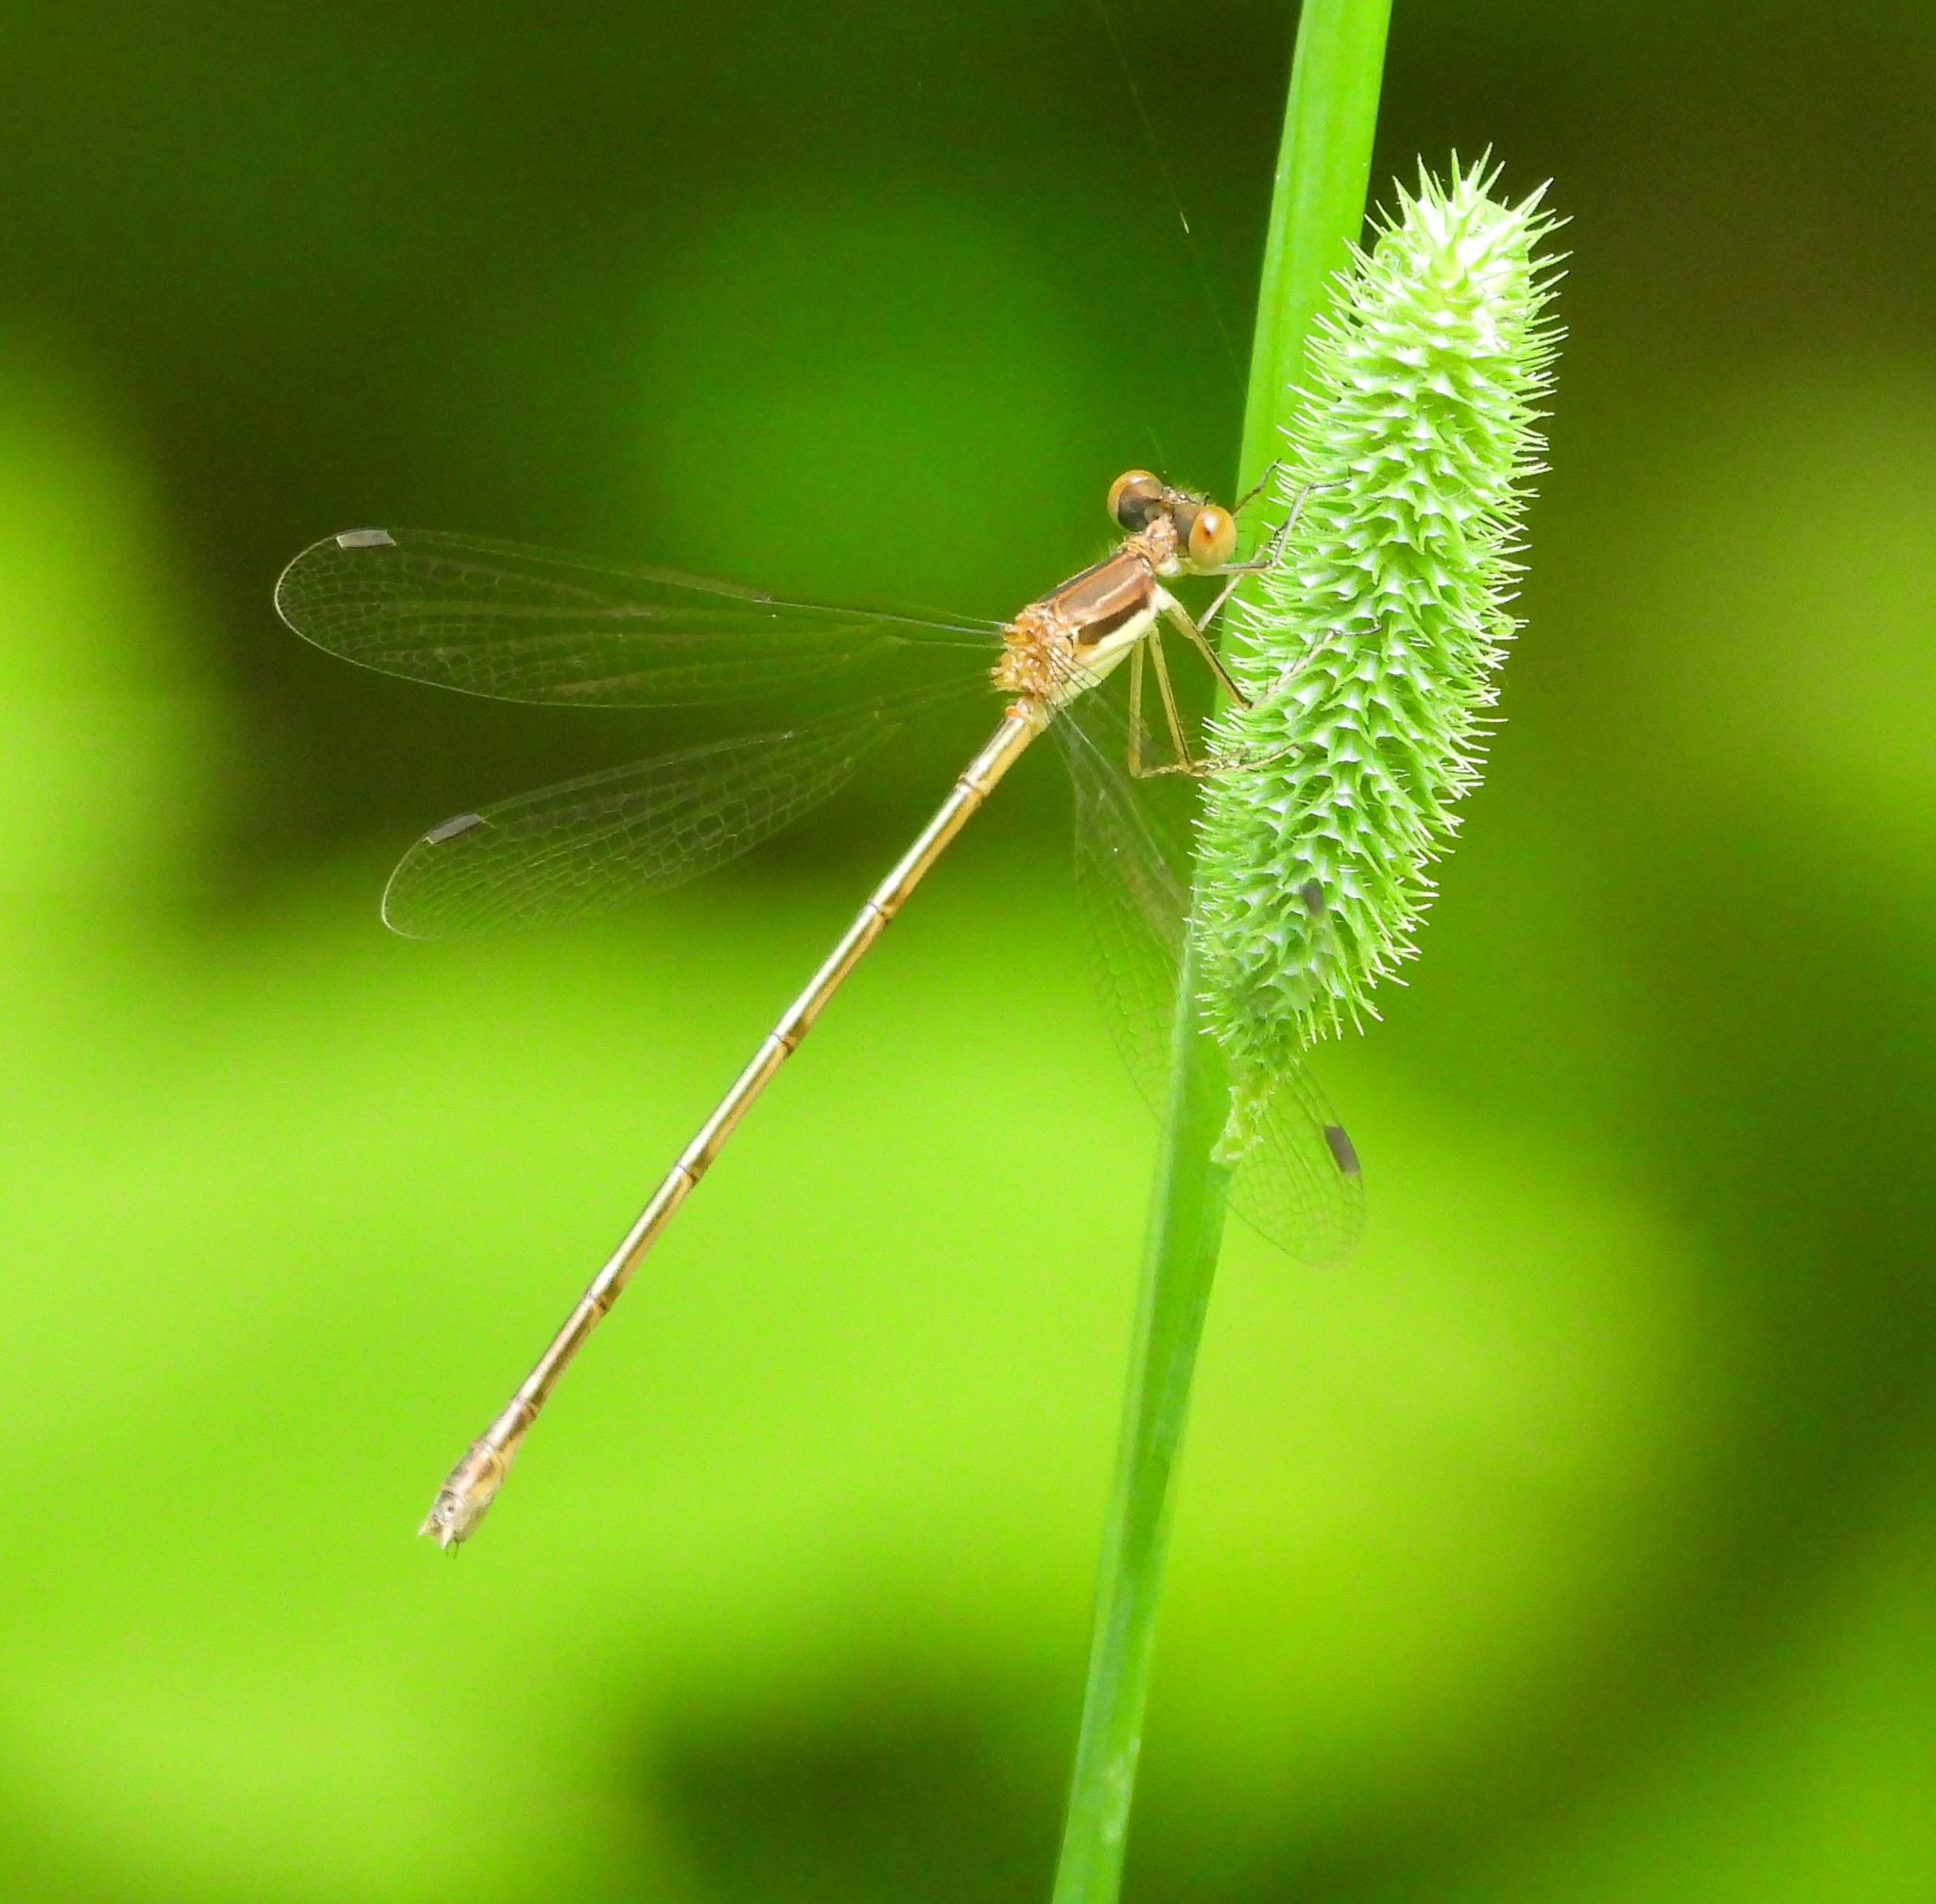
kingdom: Animalia
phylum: Arthropoda
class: Insecta
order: Odonata
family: Lestidae
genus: Lestes
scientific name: Lestes rectangularis
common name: Slender spreadwing
